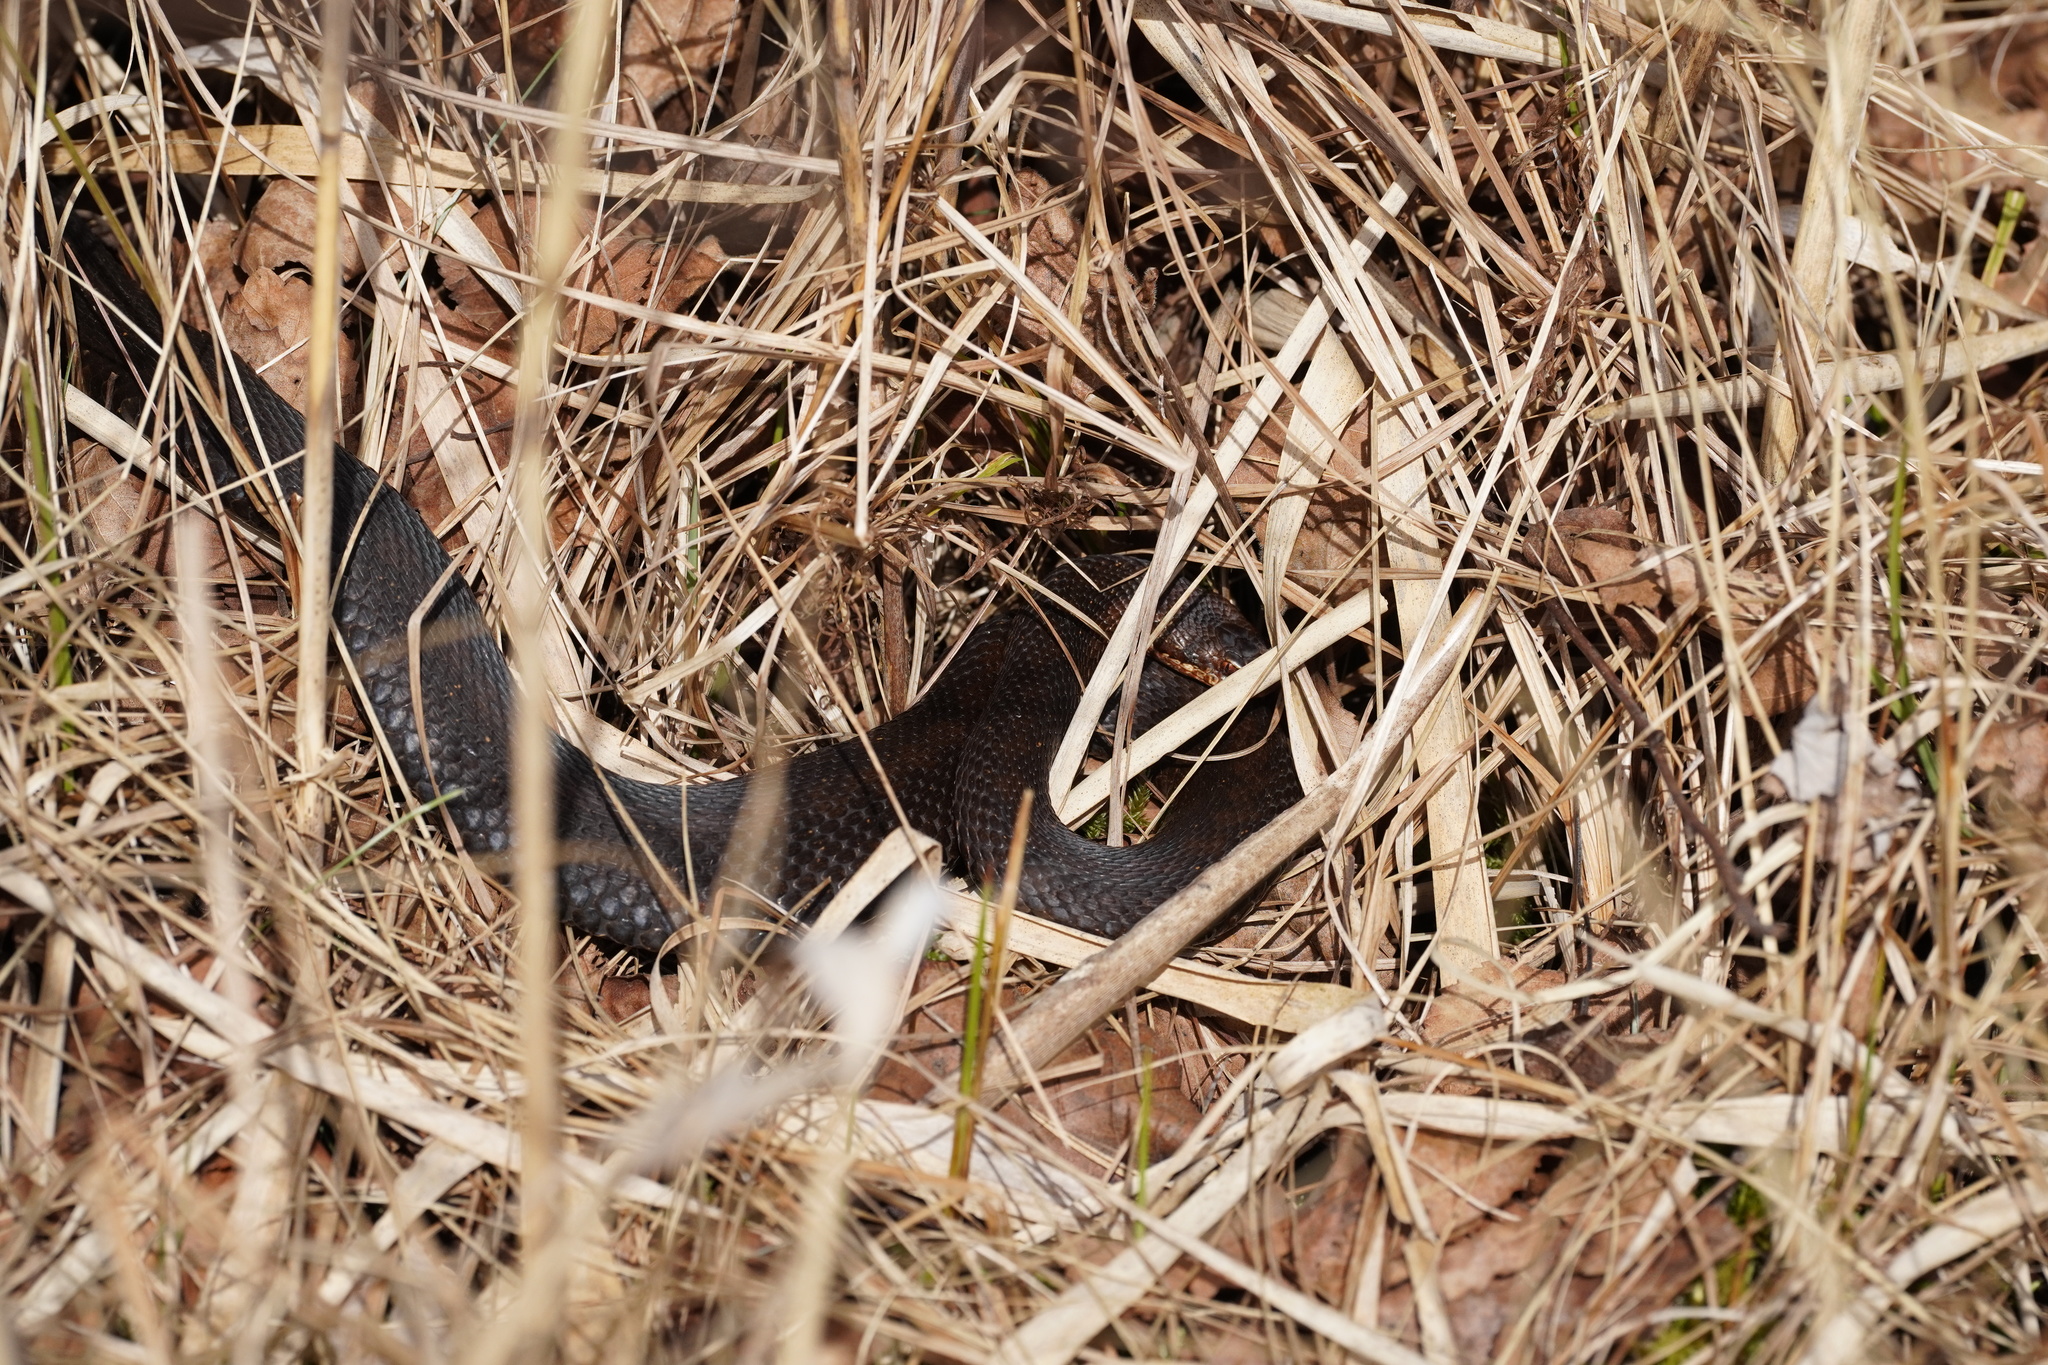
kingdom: Animalia
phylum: Chordata
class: Squamata
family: Viperidae
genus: Vipera
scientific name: Vipera berus
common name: Adder
